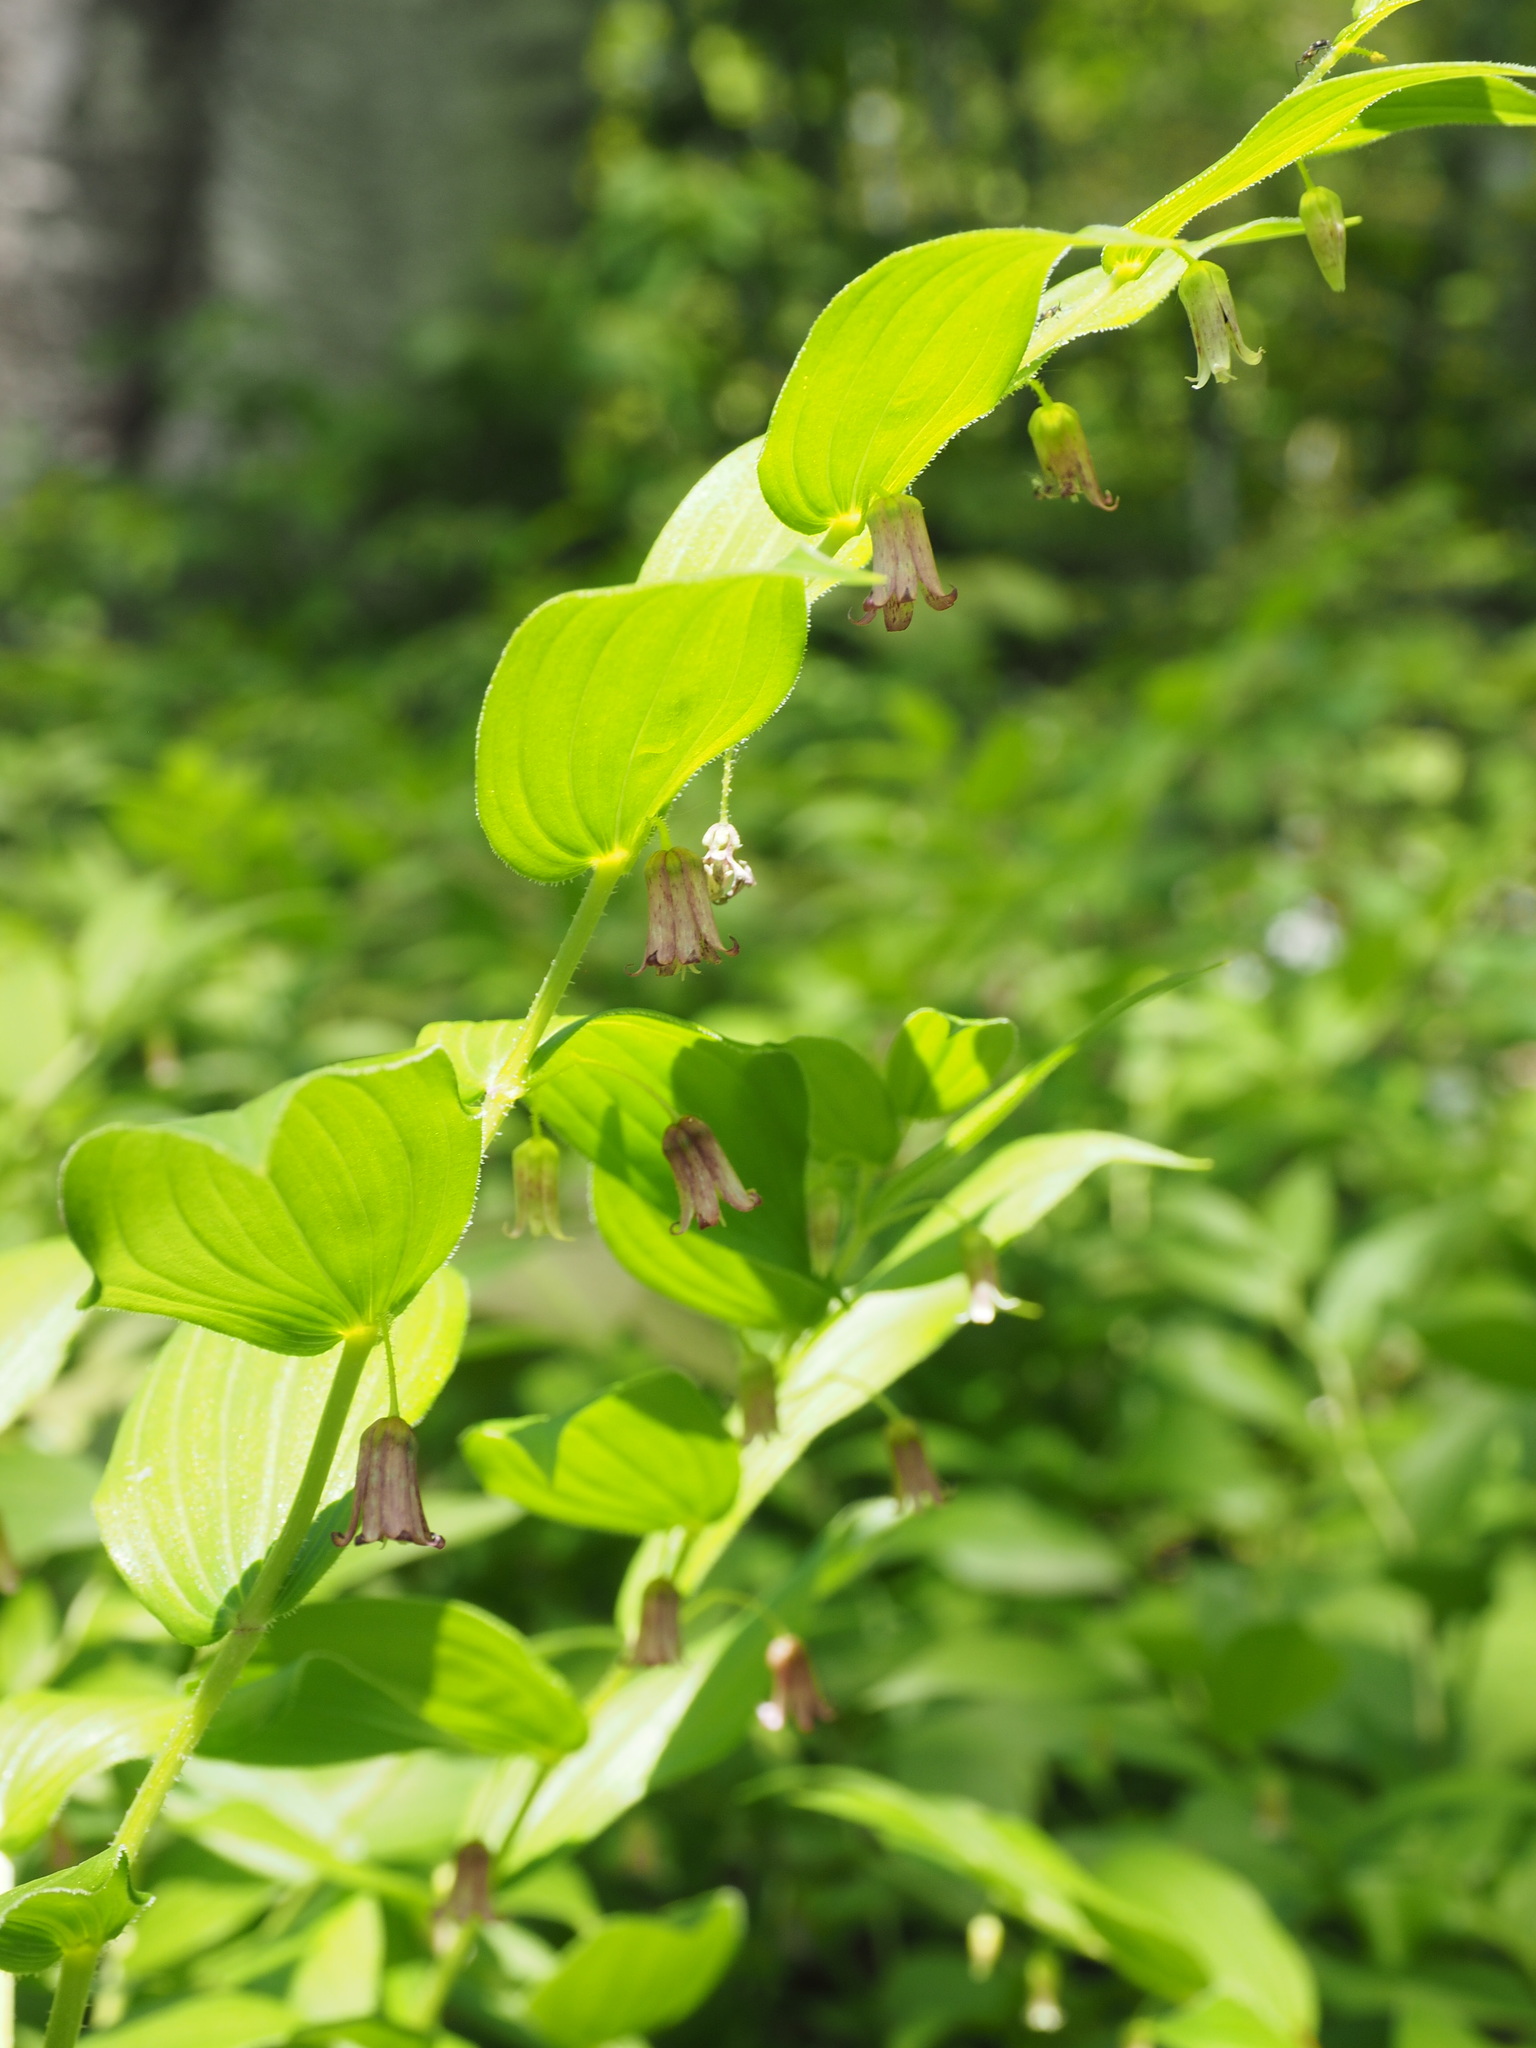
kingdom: Plantae
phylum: Tracheophyta
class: Liliopsida
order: Liliales
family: Liliaceae
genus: Streptopus
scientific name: Streptopus lanceolatus
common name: Rose mandarin
